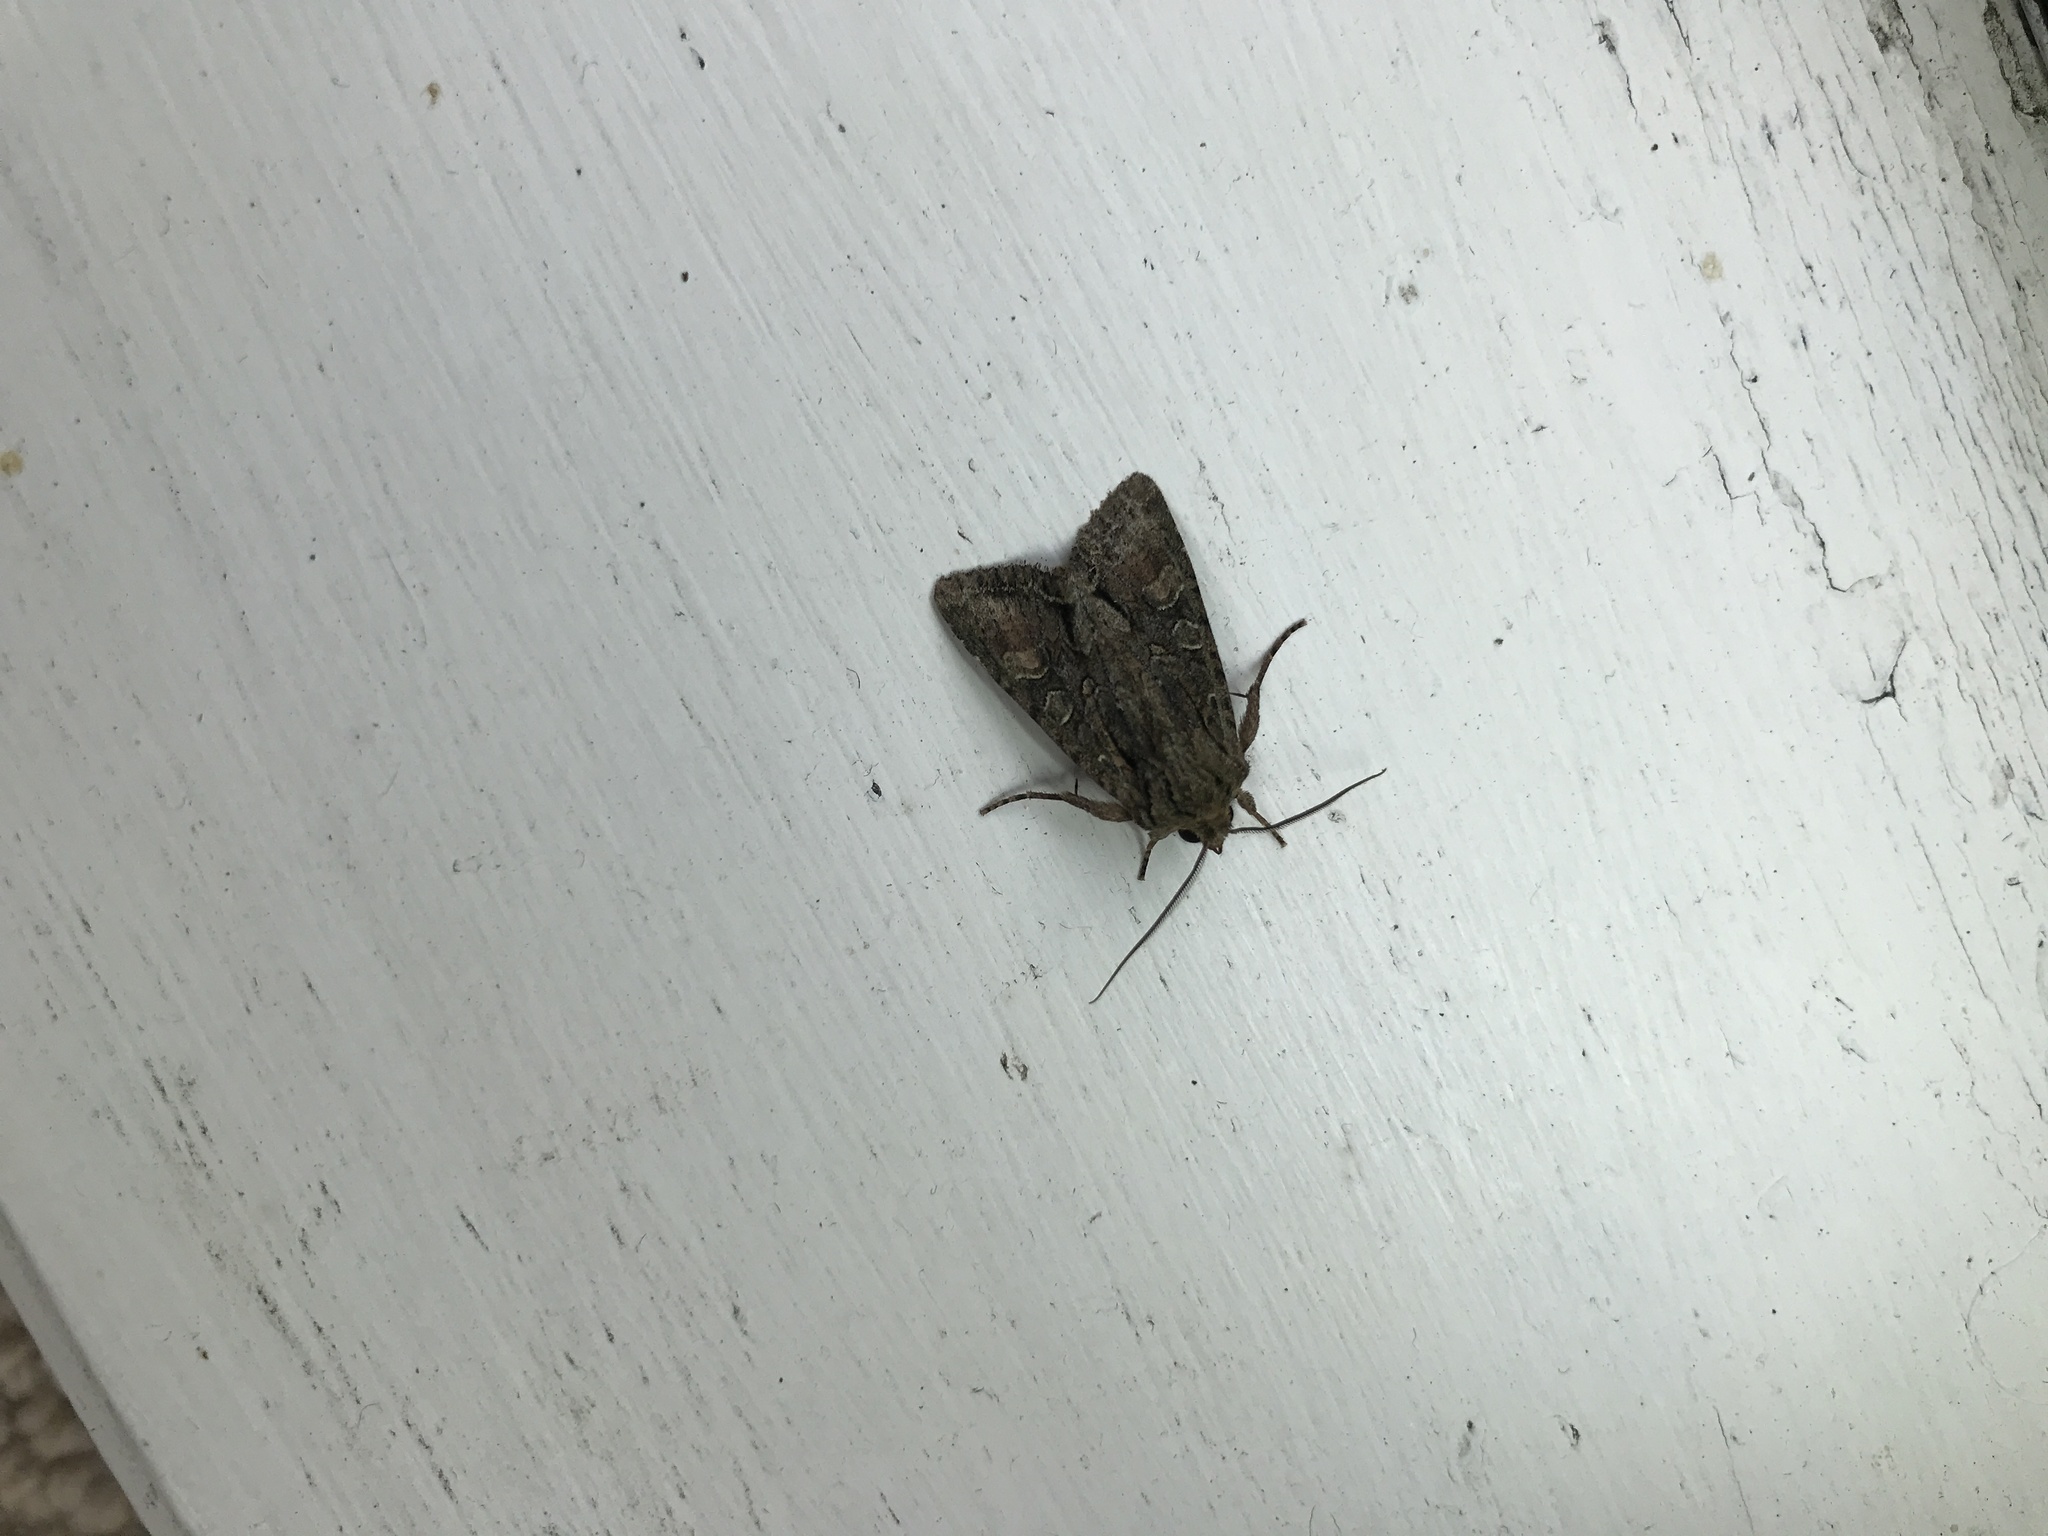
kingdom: Animalia
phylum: Arthropoda
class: Insecta
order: Lepidoptera
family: Noctuidae
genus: Ichneutica
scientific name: Ichneutica mutans
